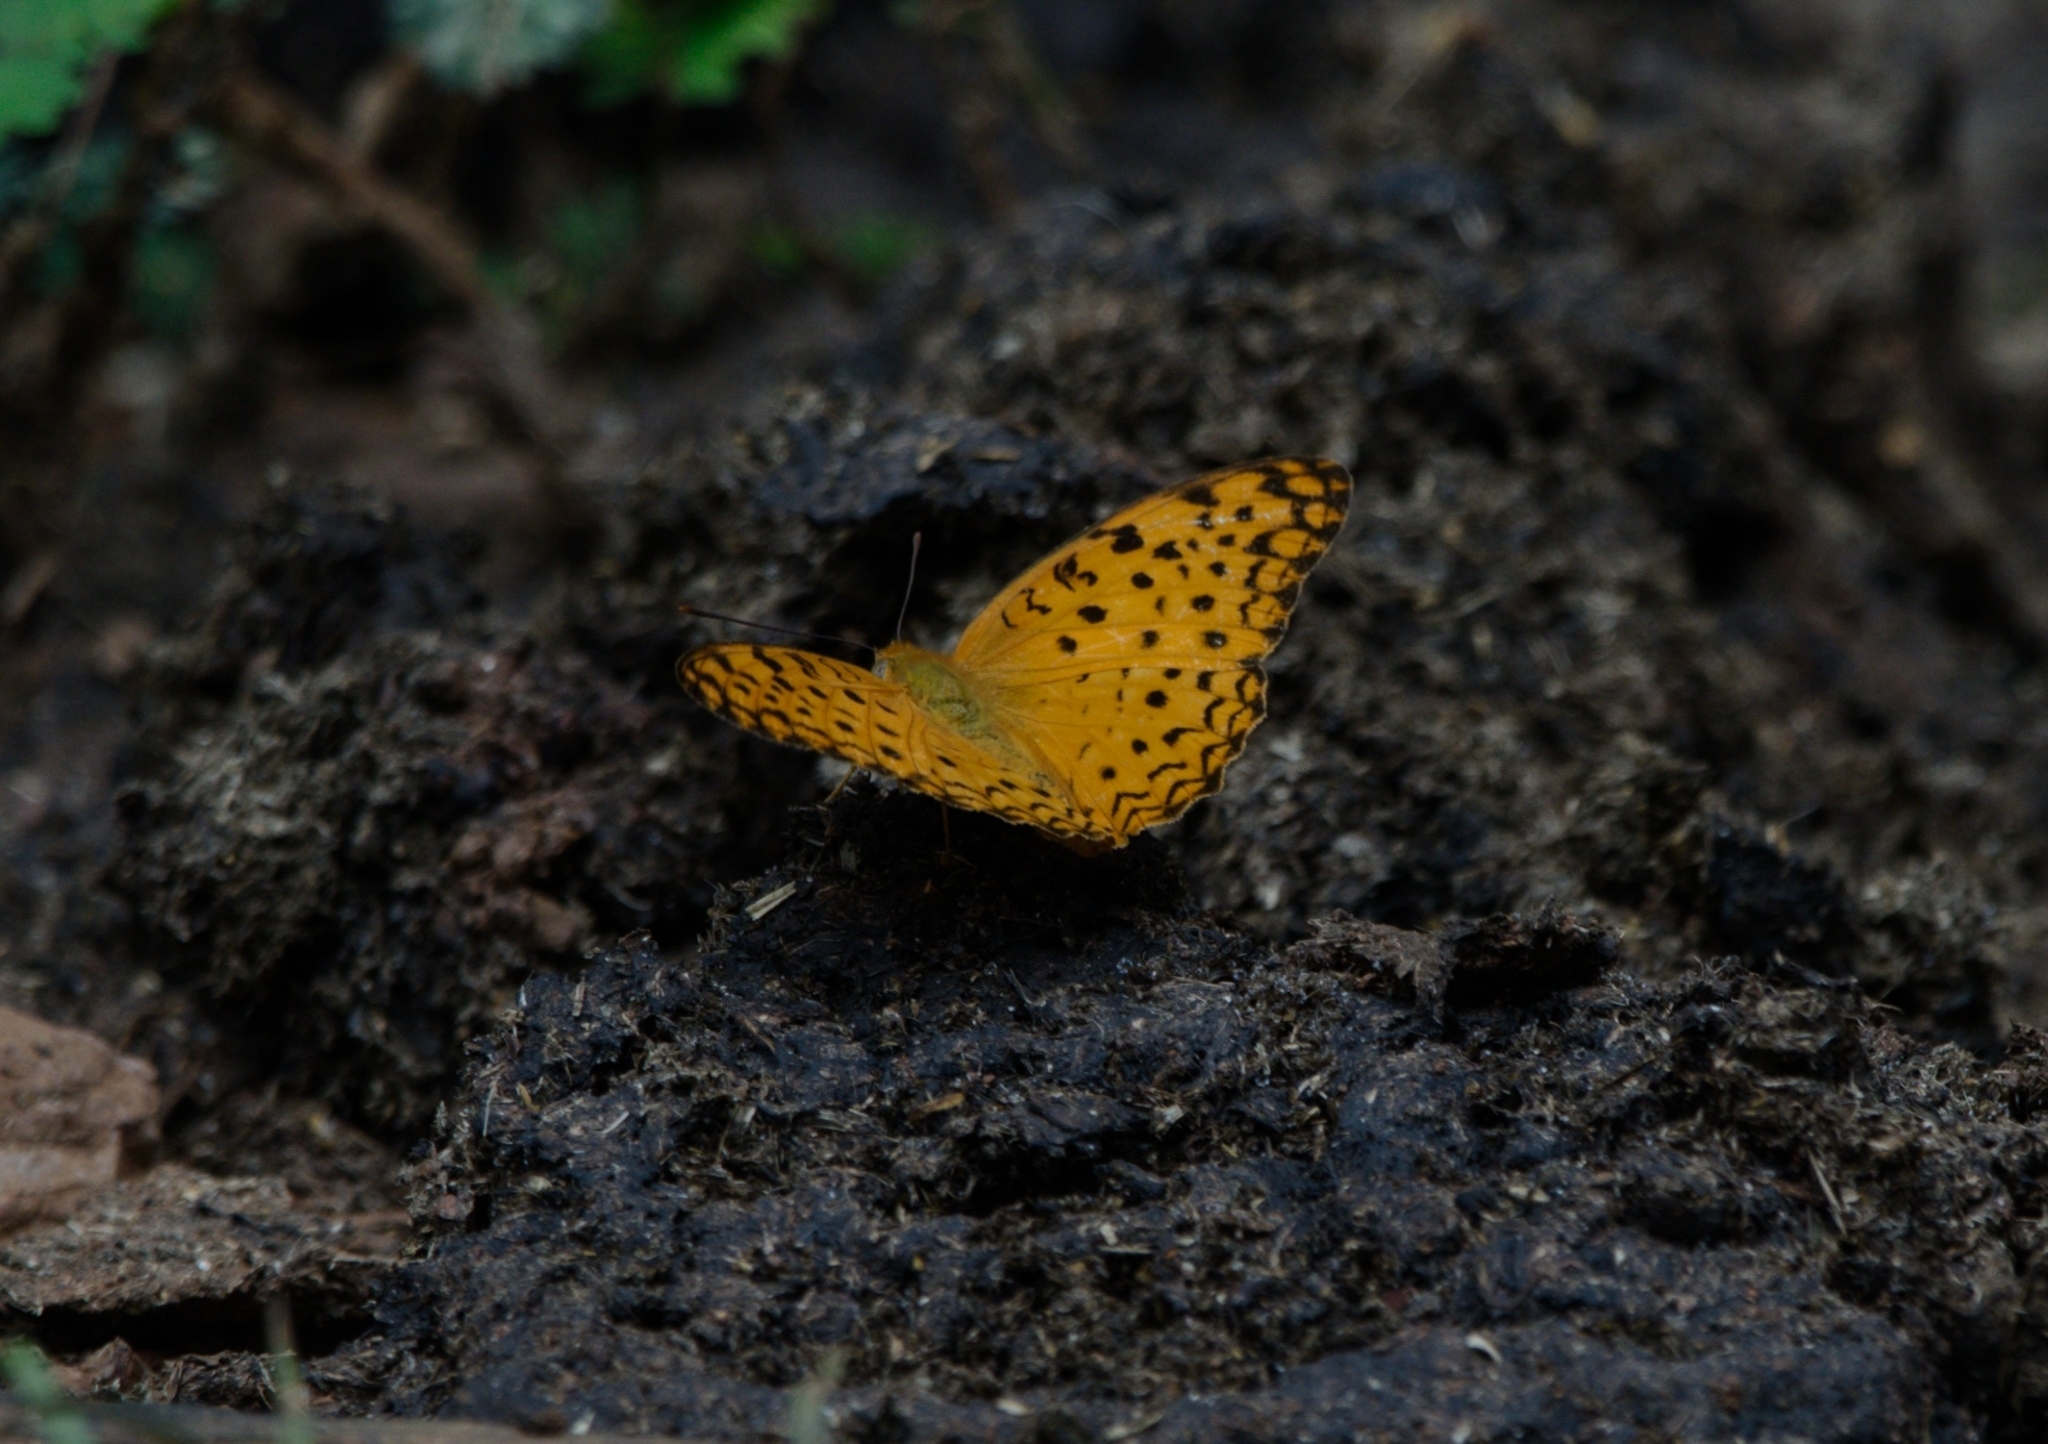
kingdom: Animalia
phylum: Arthropoda
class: Insecta
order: Lepidoptera
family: Nymphalidae
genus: Phalanta
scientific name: Phalanta phalantha
